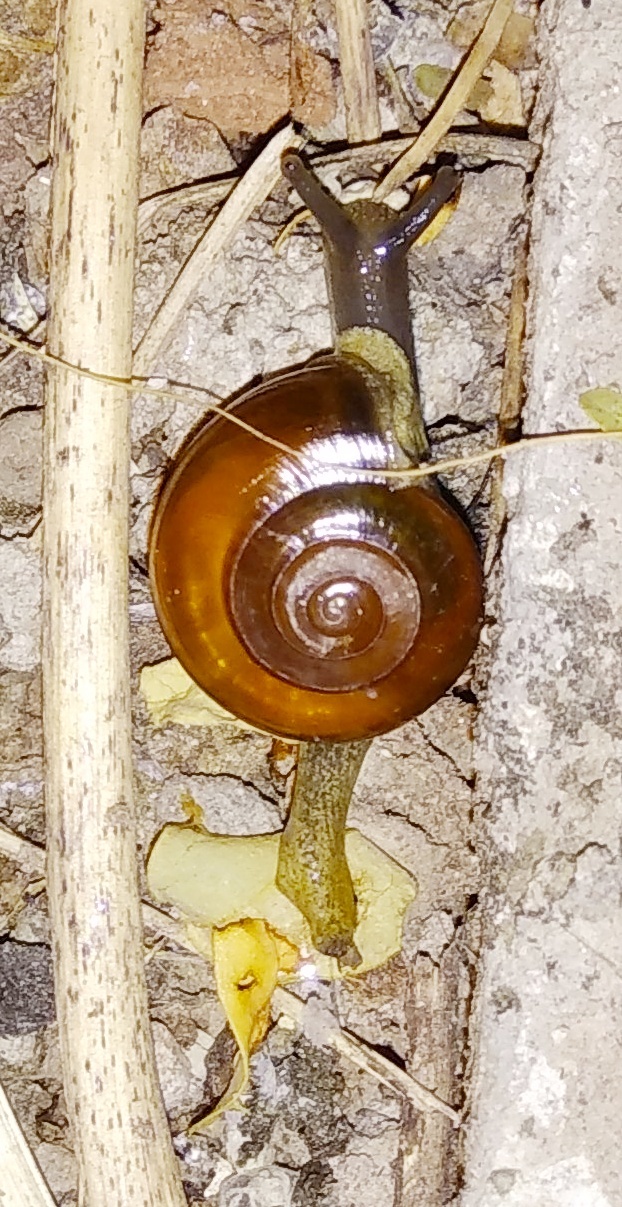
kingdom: Animalia
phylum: Mollusca
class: Gastropoda
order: Stylommatophora
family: Ariophantidae
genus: Macrochlamys
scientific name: Macrochlamys indica
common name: Horntail snail
